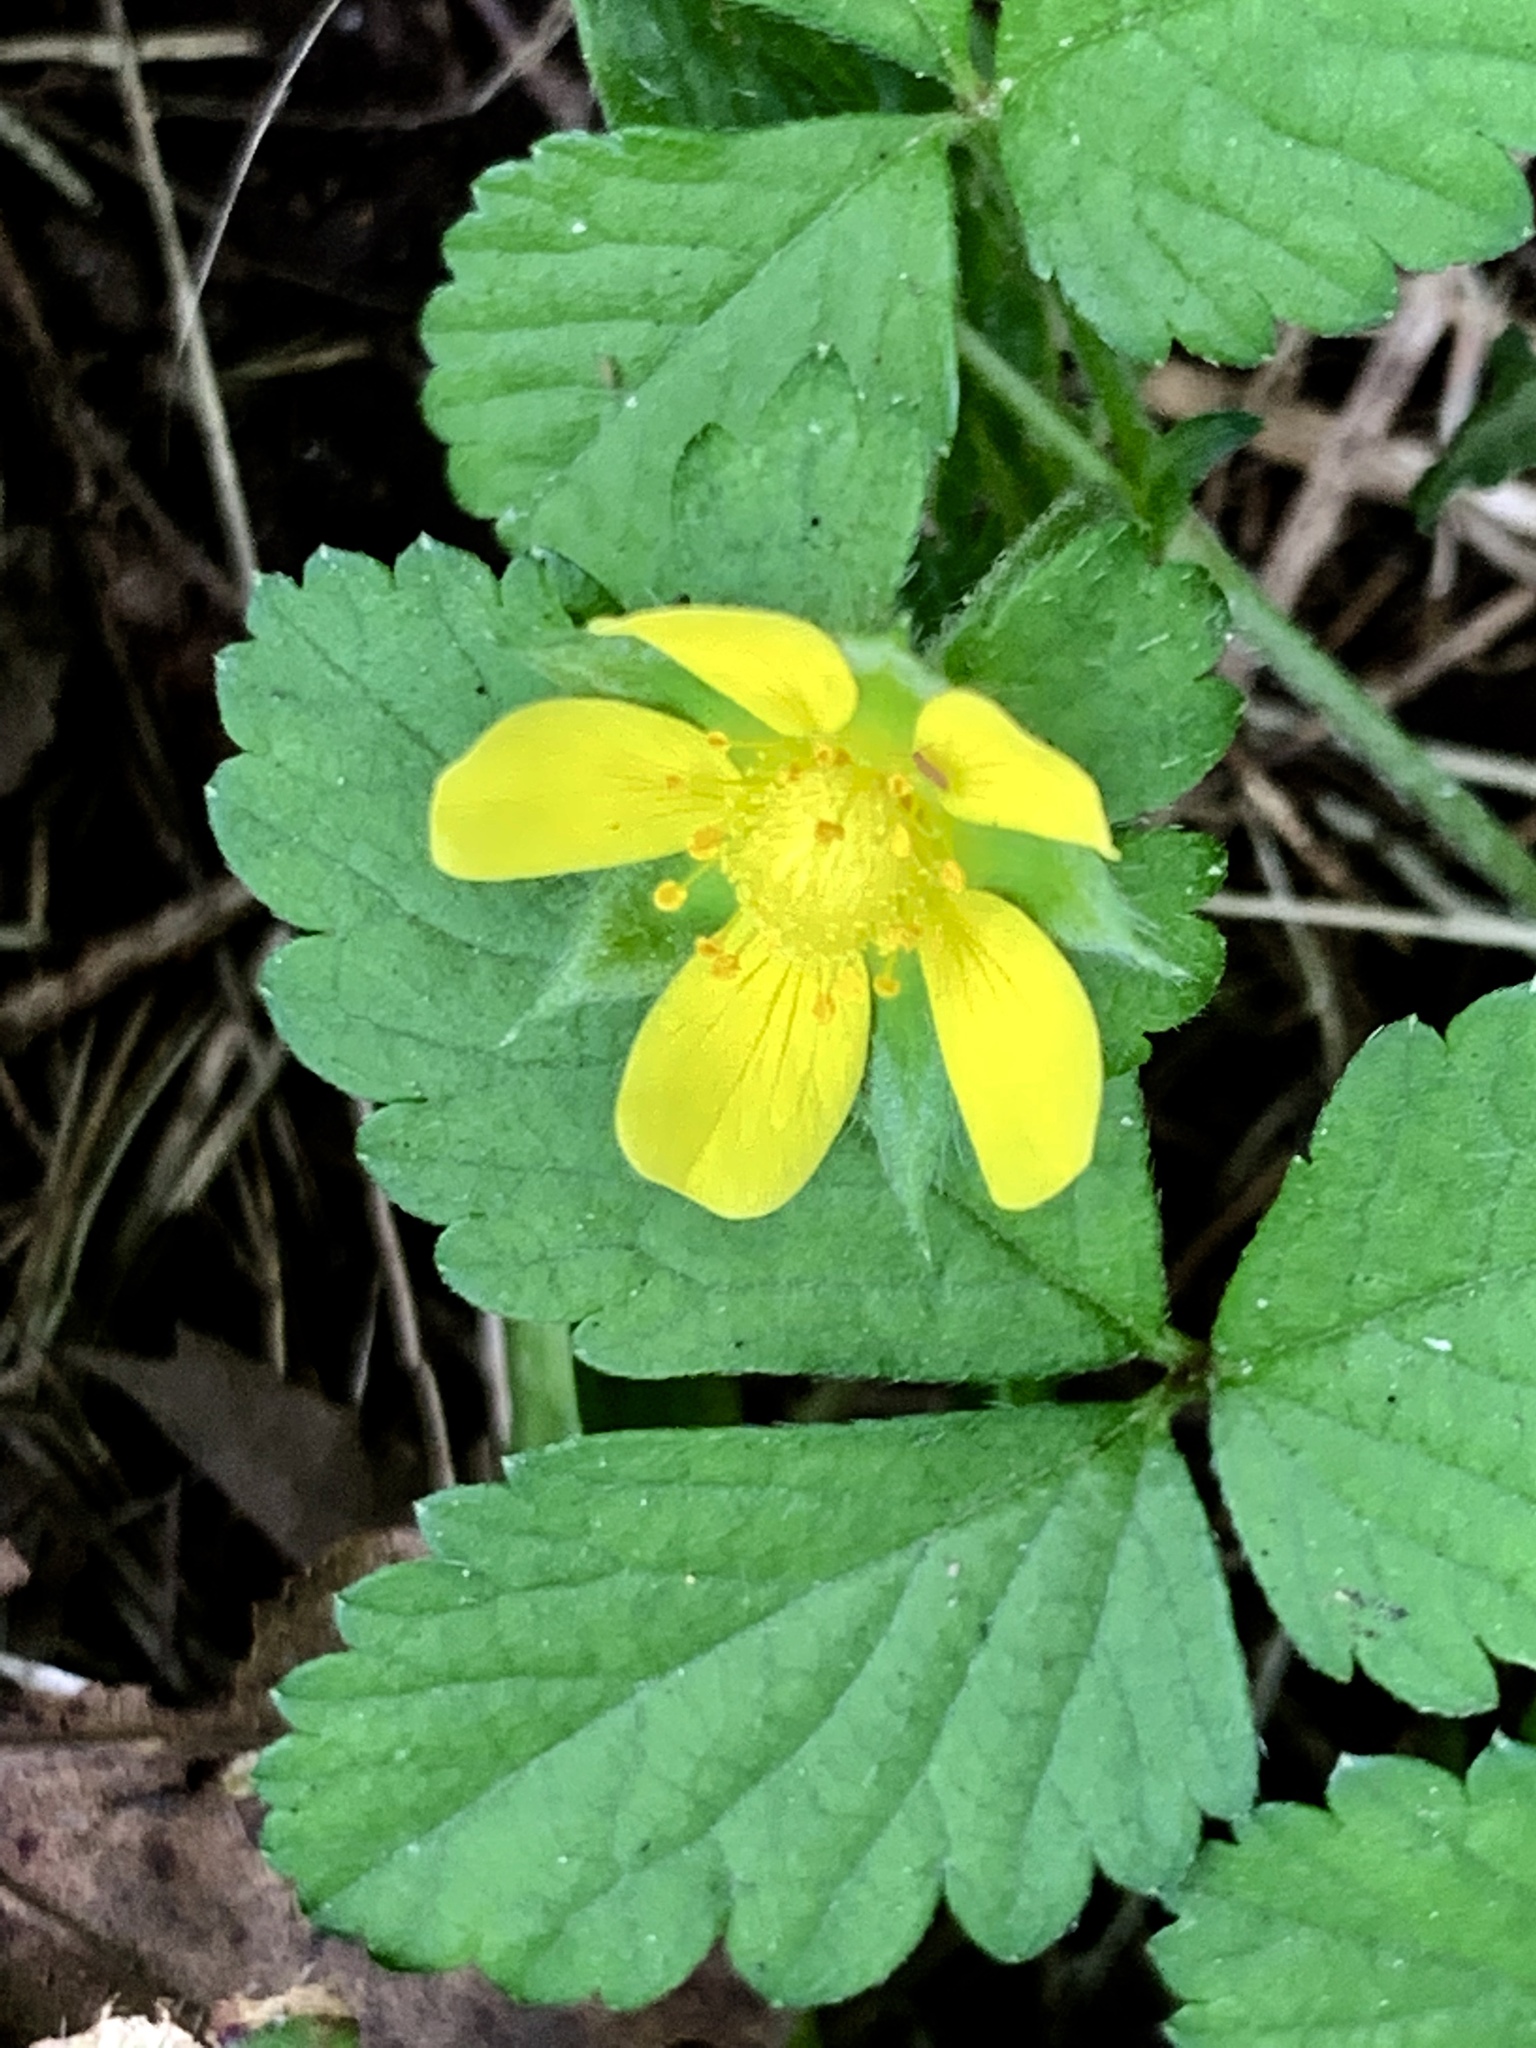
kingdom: Plantae
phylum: Tracheophyta
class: Magnoliopsida
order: Rosales
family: Rosaceae
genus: Potentilla
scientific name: Potentilla indica
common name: Yellow-flowered strawberry
